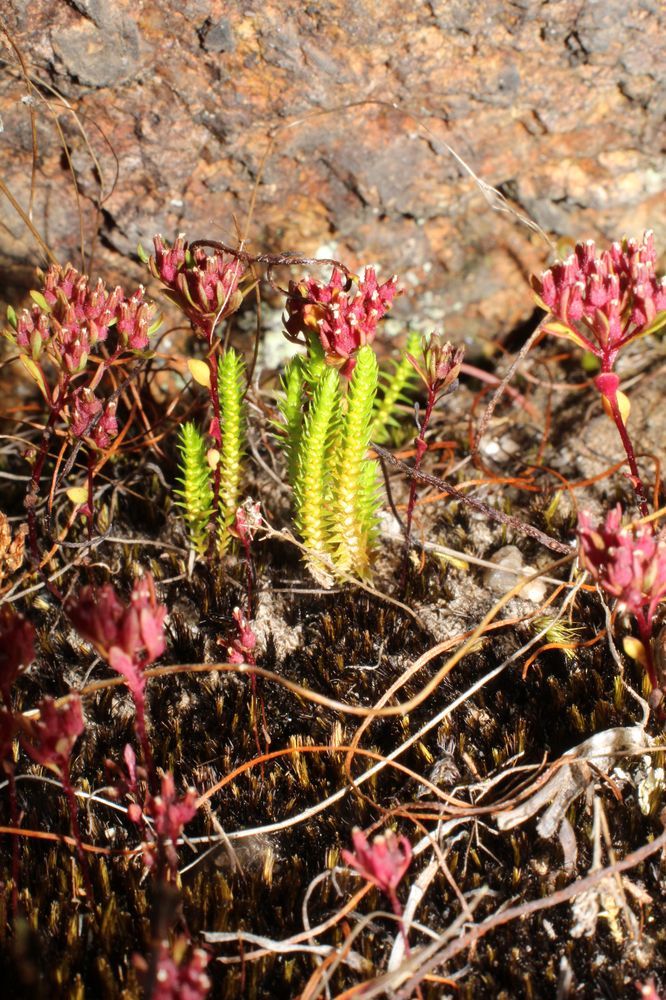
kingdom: Plantae
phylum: Tracheophyta
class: Lycopodiopsida
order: Selaginellales
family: Selaginellaceae
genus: Selaginella
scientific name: Selaginella gracillima
